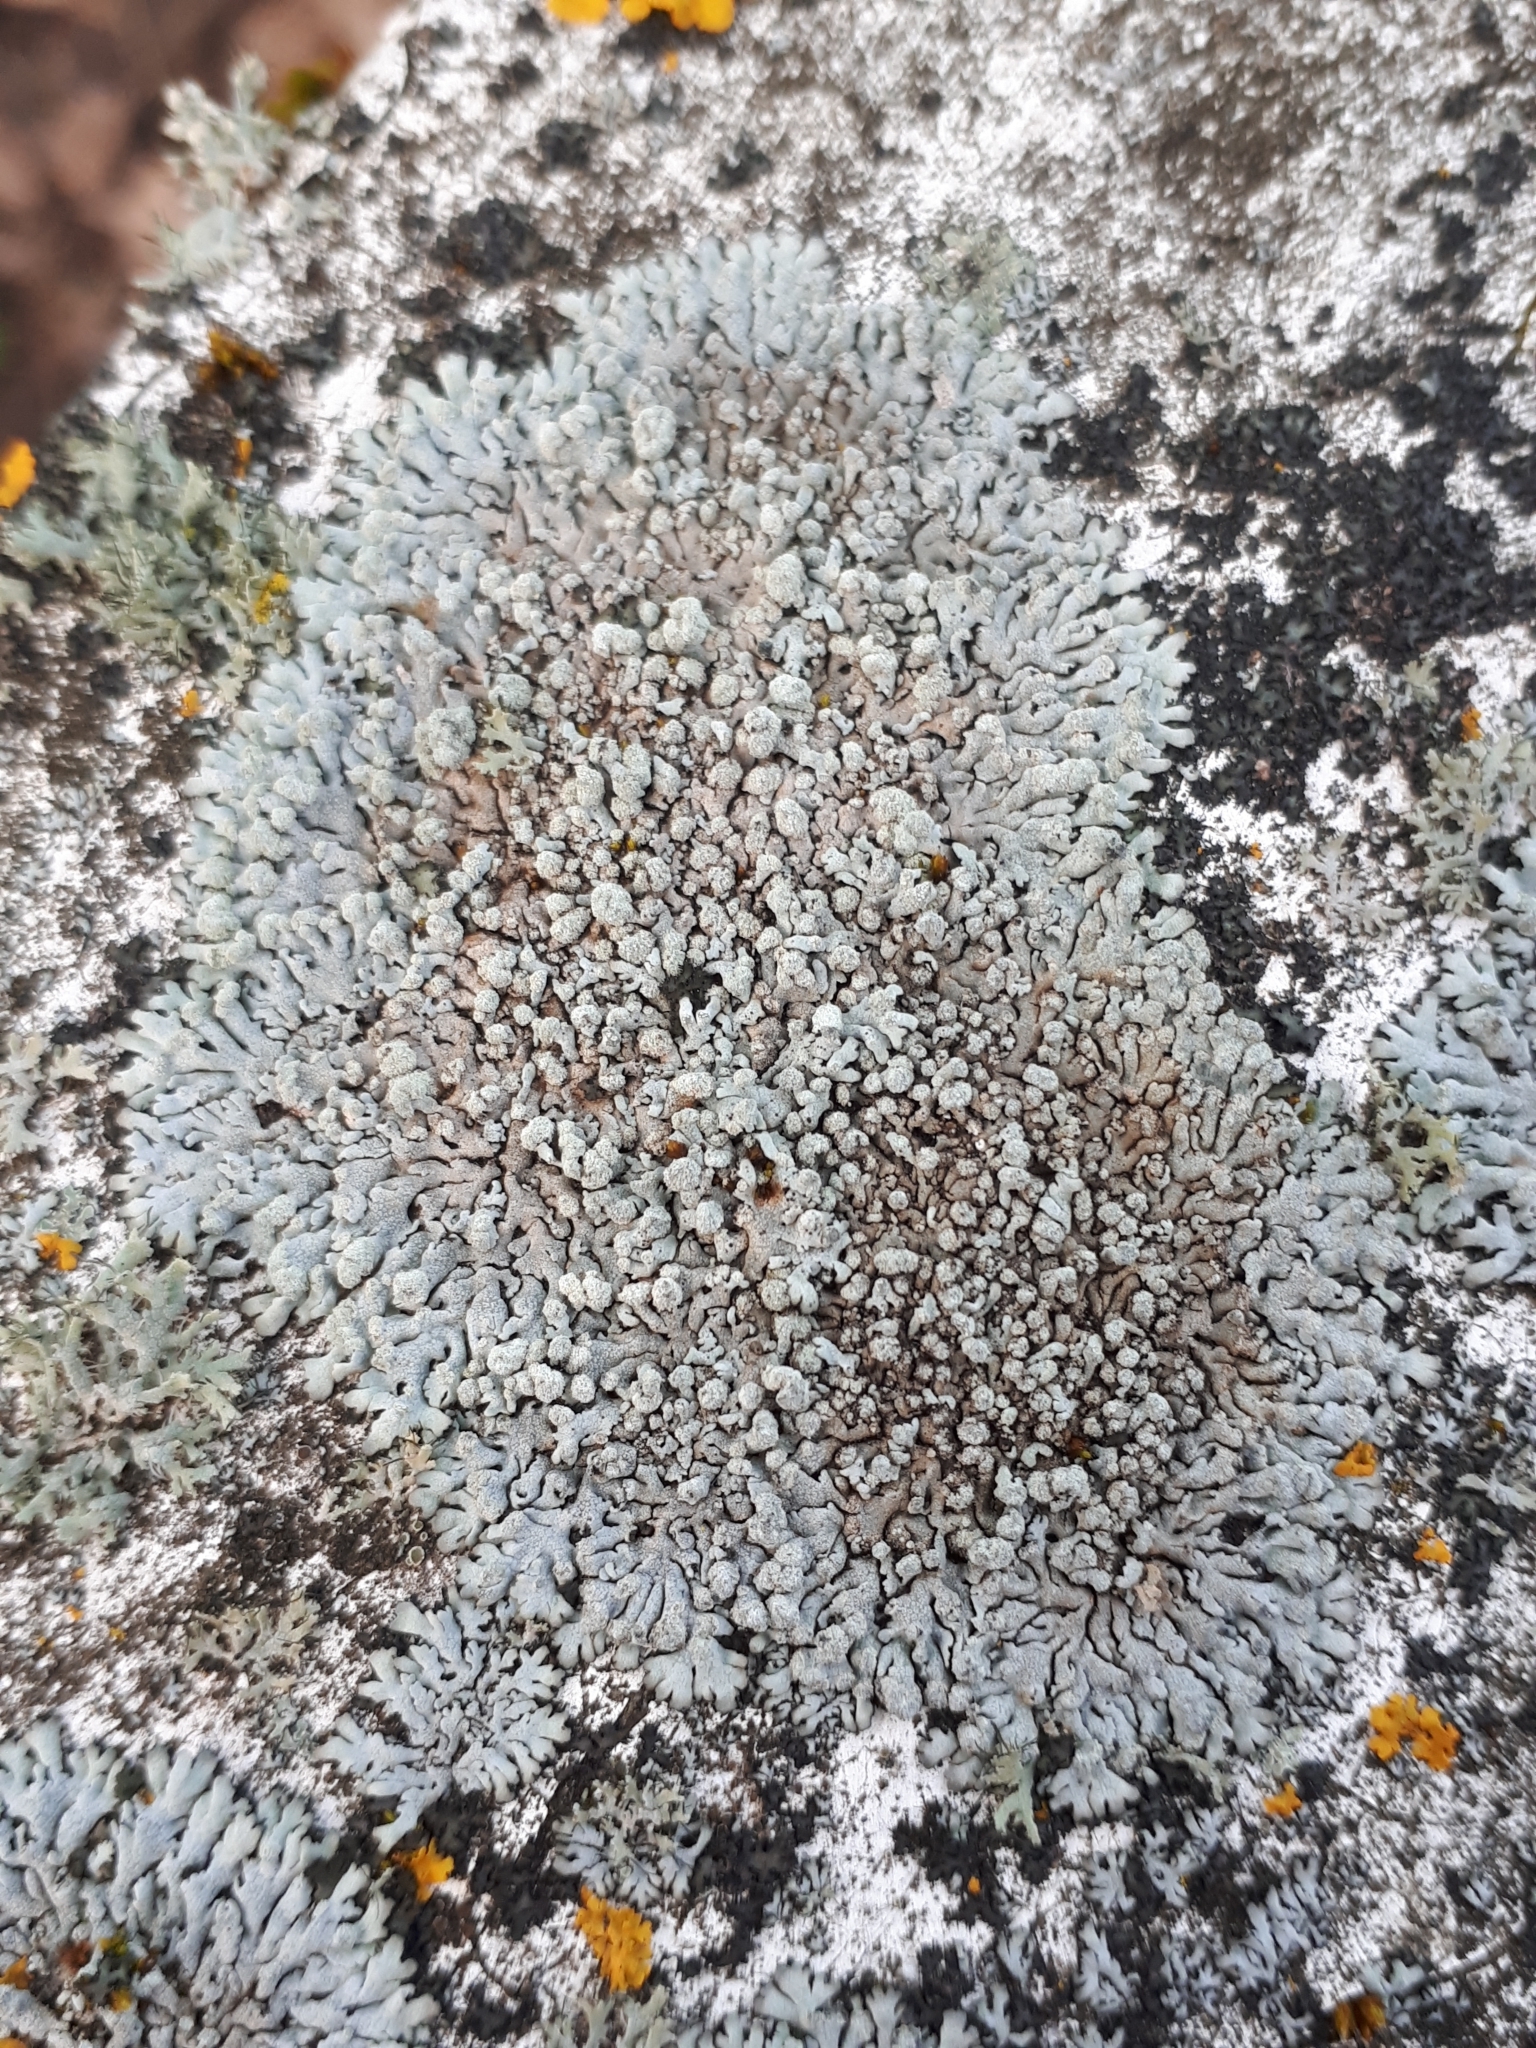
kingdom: Fungi
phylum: Ascomycota
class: Lecanoromycetes
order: Caliciales
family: Physciaceae
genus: Physcia
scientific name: Physcia caesia
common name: Blue-gray rosette lichen
